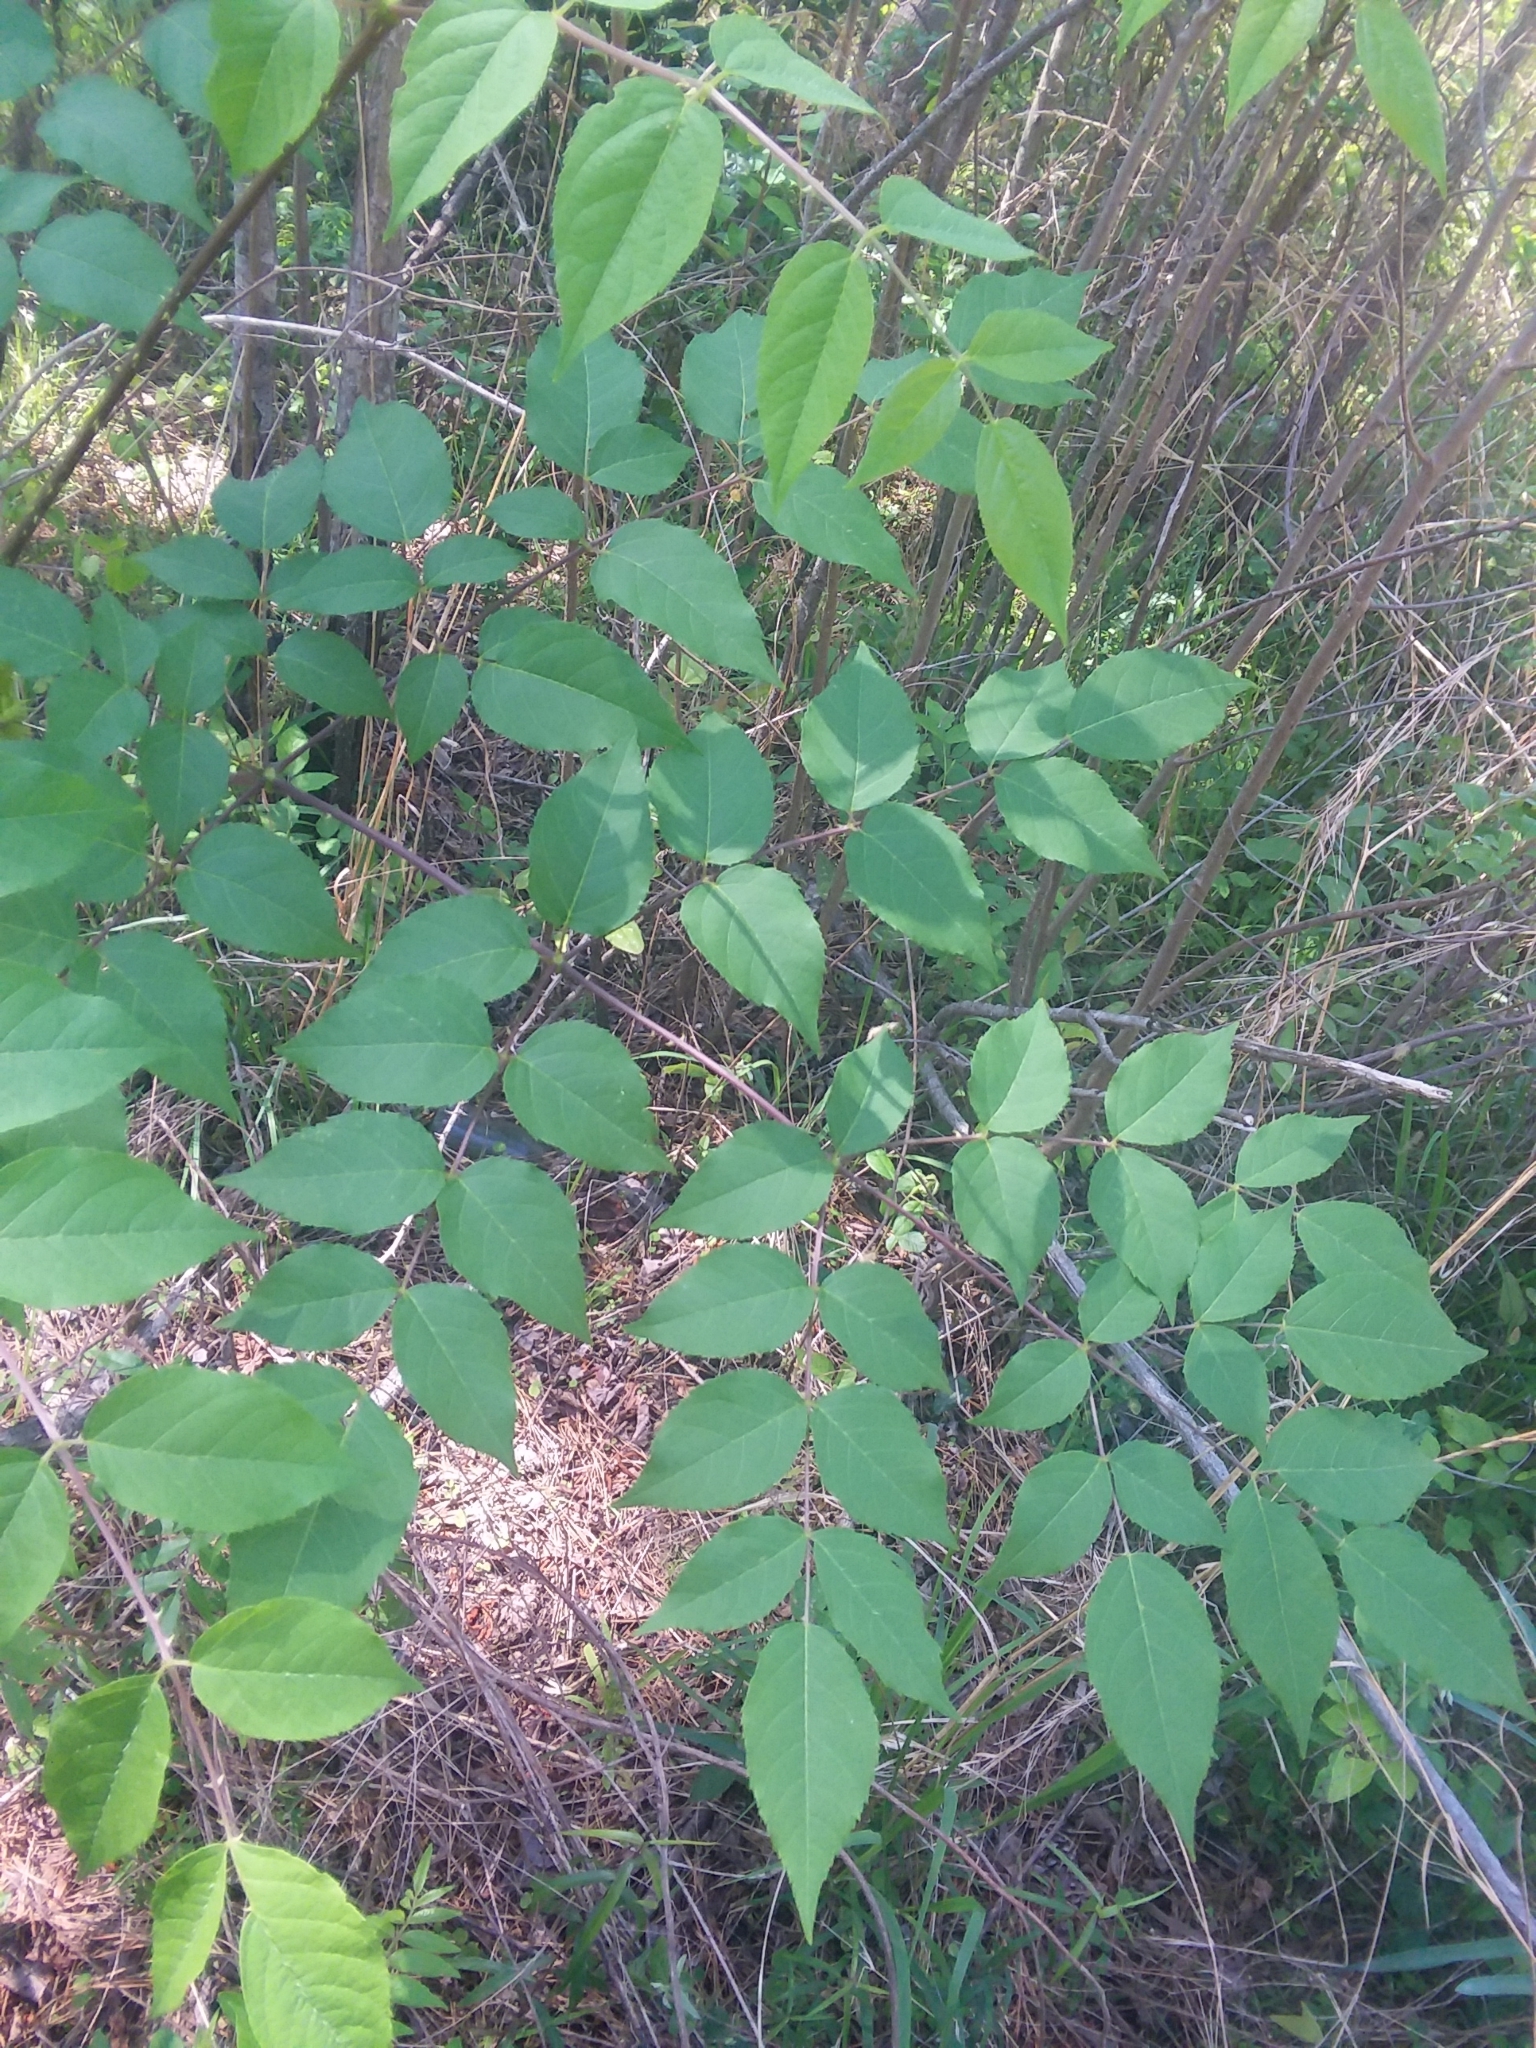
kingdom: Plantae
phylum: Tracheophyta
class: Magnoliopsida
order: Apiales
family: Araliaceae
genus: Aralia
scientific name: Aralia spinosa
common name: Hercules'-club
